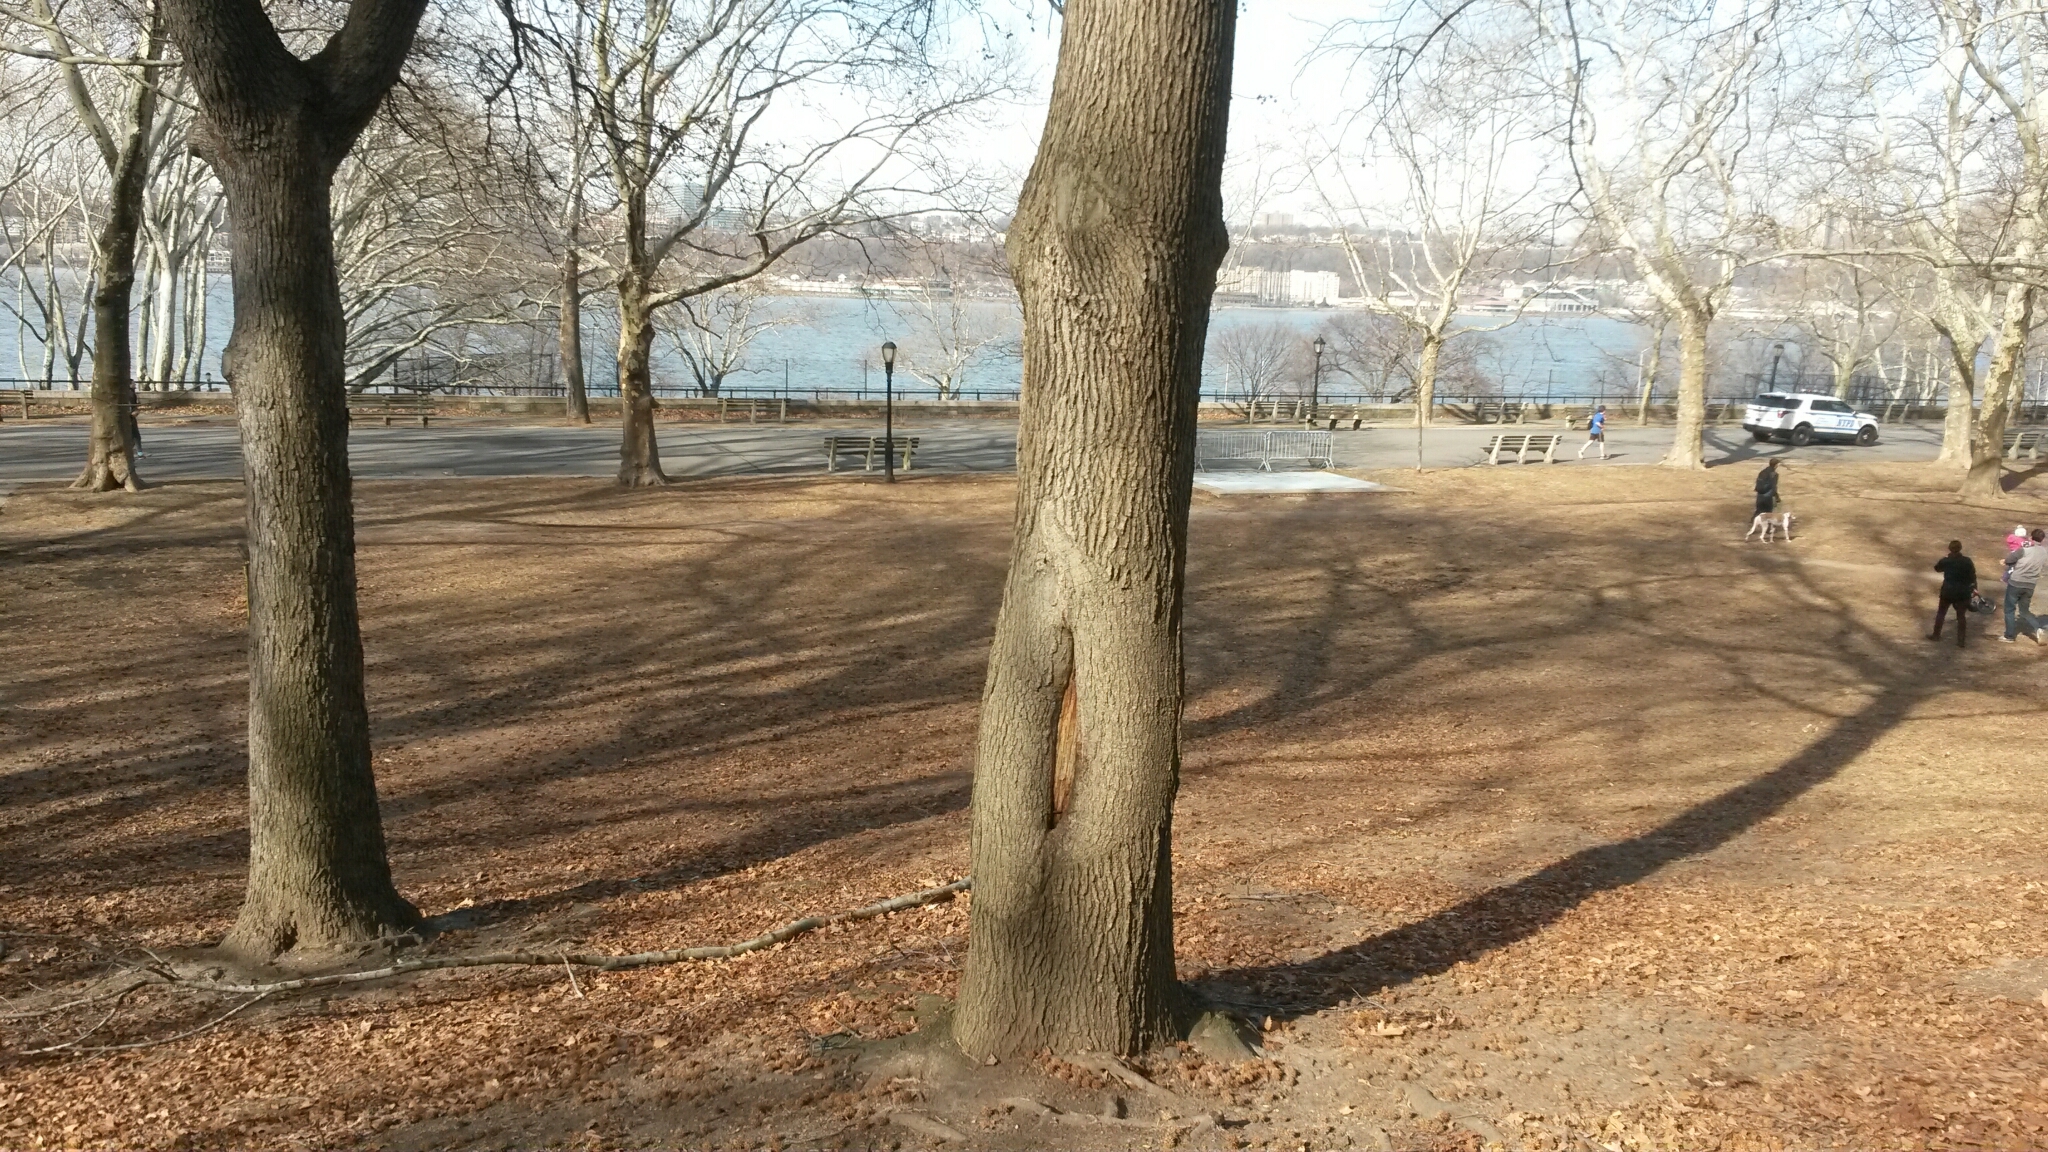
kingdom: Plantae
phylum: Tracheophyta
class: Magnoliopsida
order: Saxifragales
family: Altingiaceae
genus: Liquidambar
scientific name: Liquidambar styraciflua
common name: Sweet gum
